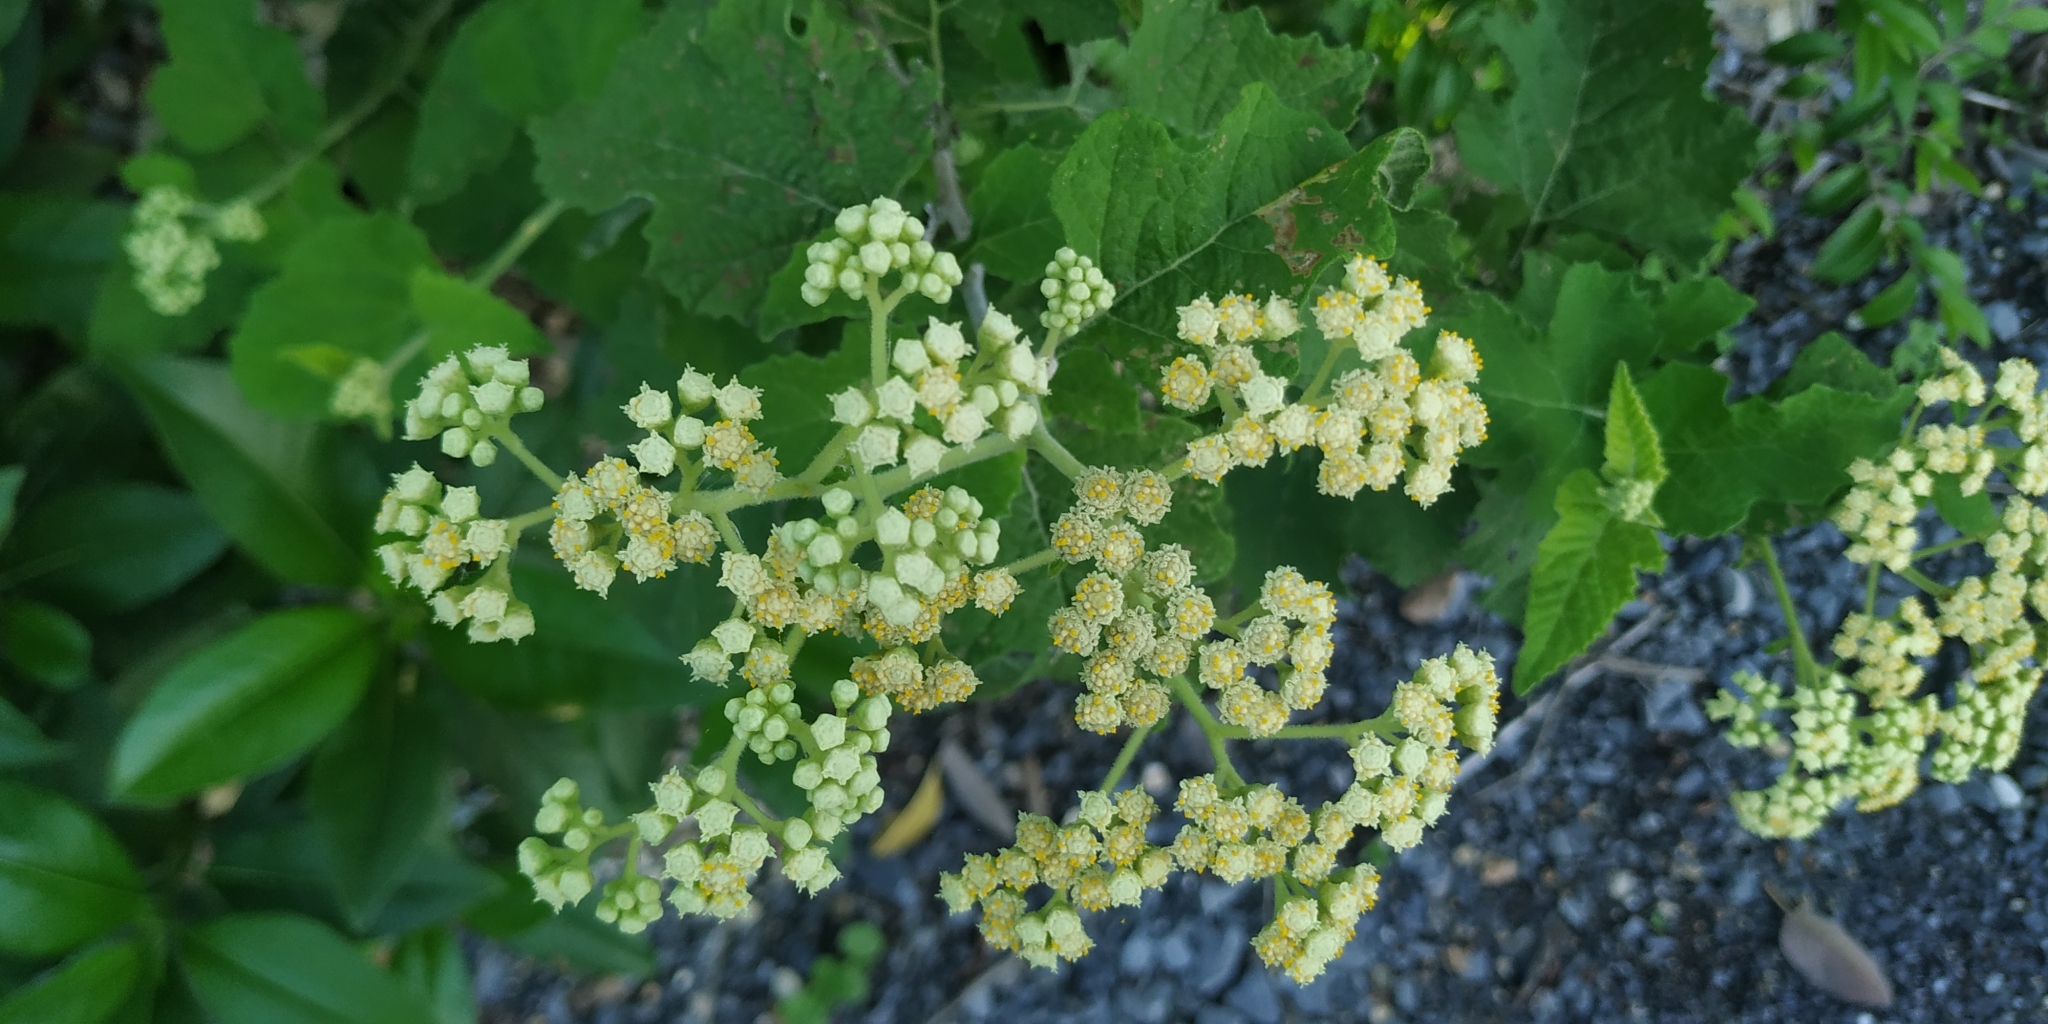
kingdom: Plantae
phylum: Tracheophyta
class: Magnoliopsida
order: Asterales
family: Asteraceae
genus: Parthenium
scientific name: Parthenium fruticosum
